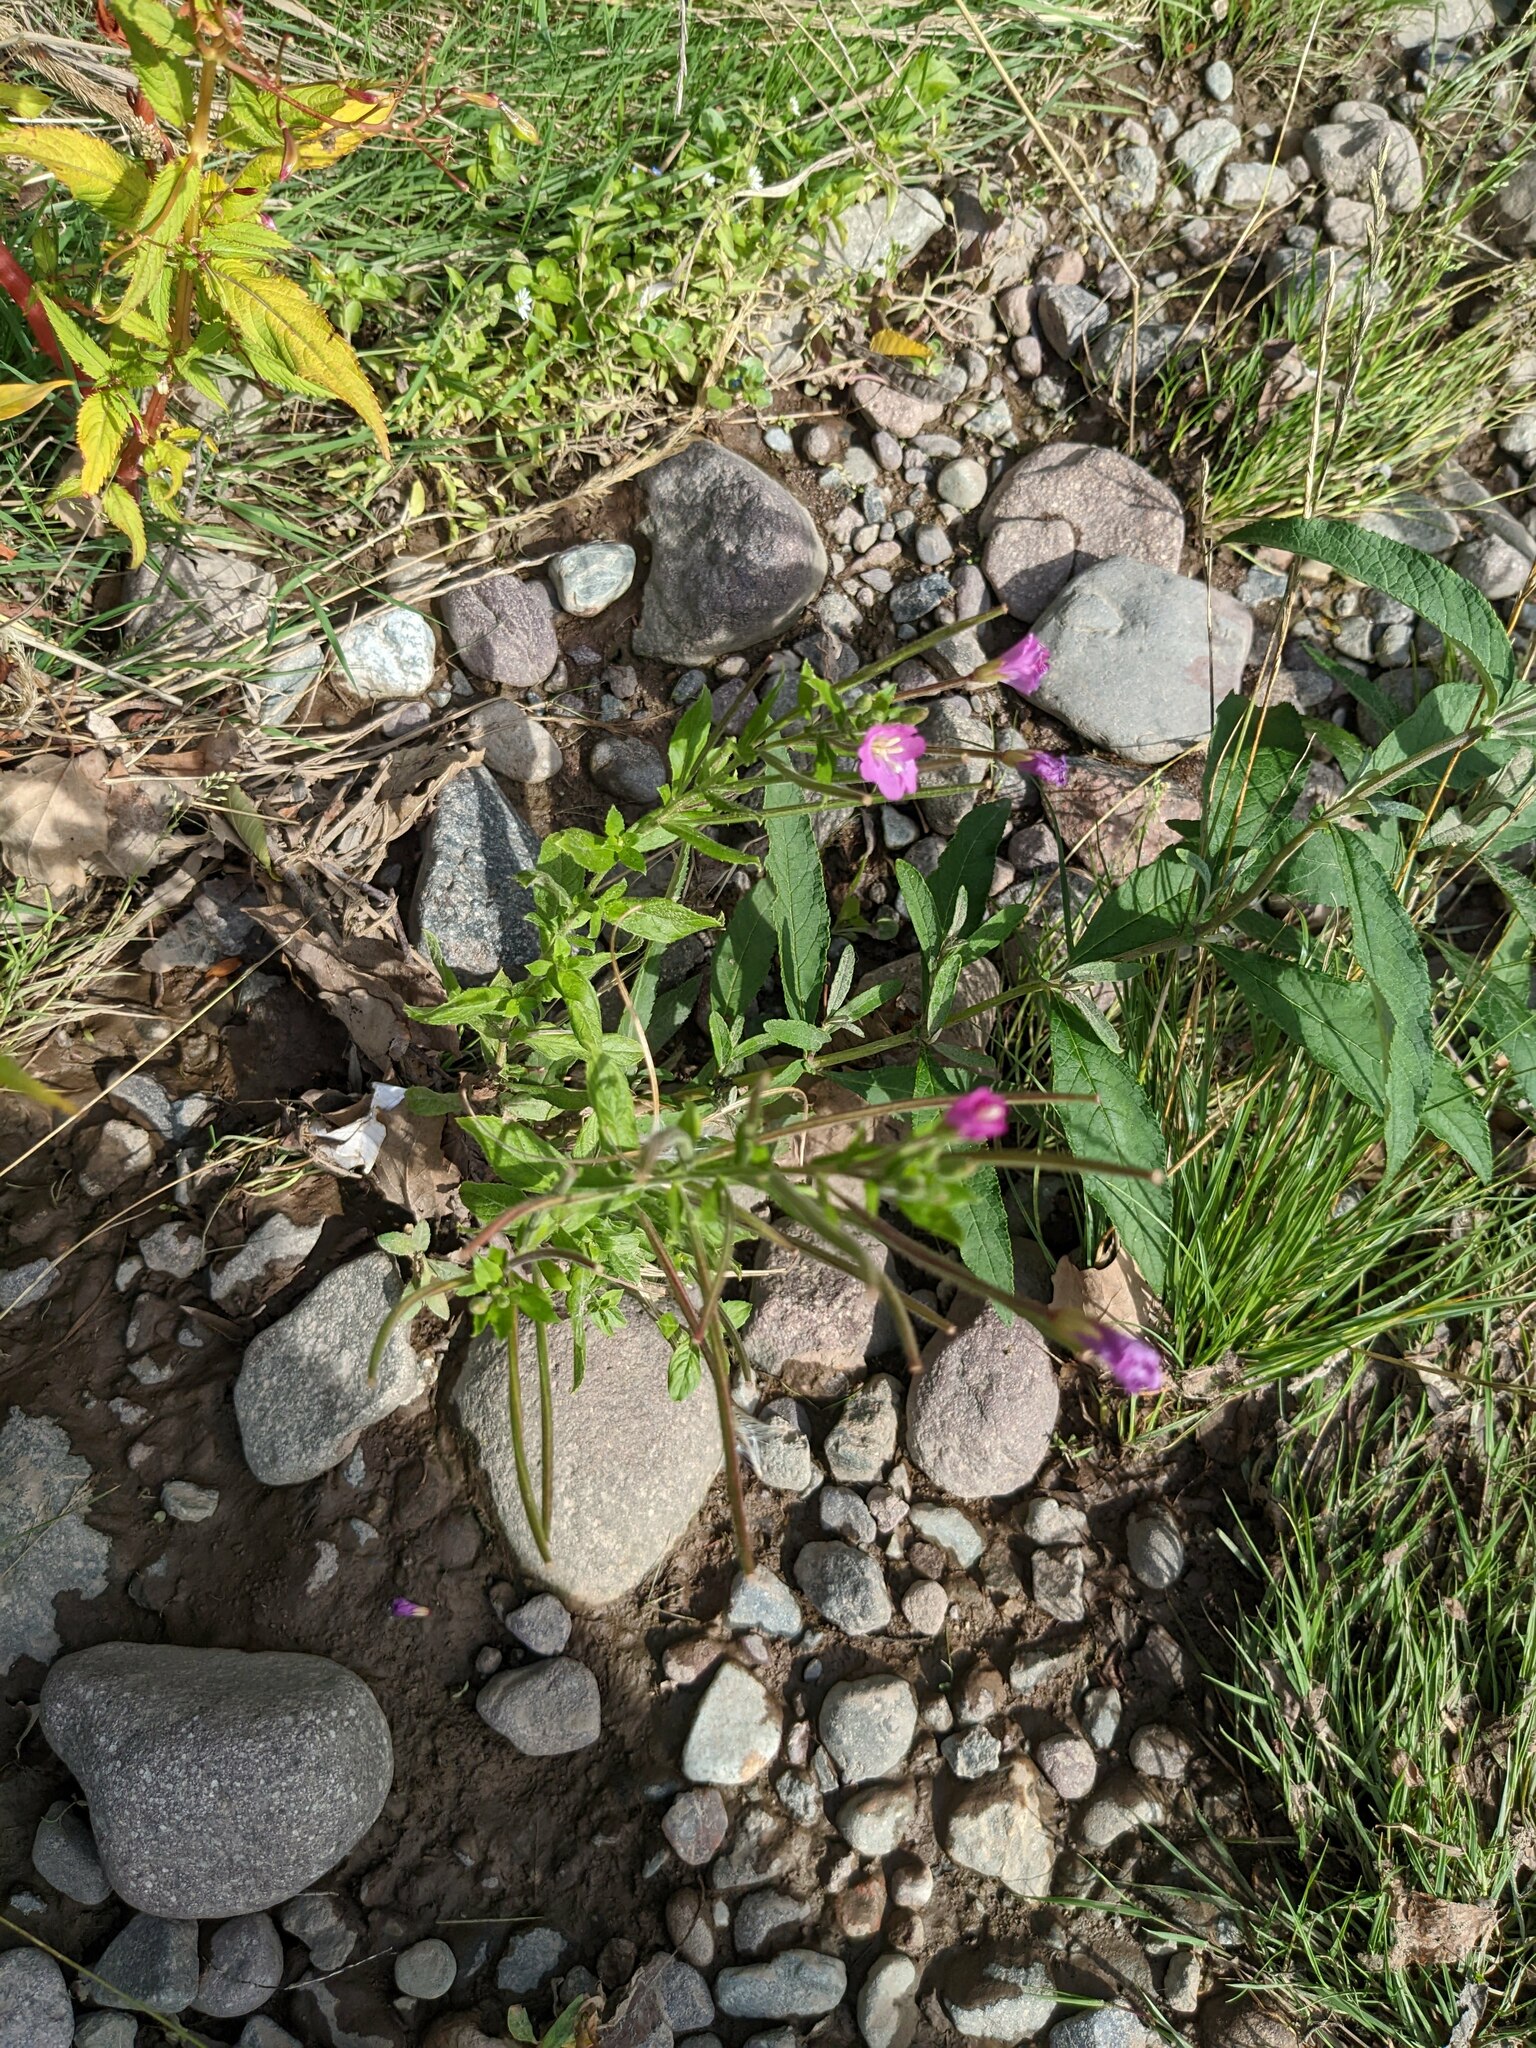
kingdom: Plantae
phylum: Tracheophyta
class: Magnoliopsida
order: Myrtales
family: Onagraceae
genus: Epilobium
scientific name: Epilobium hirsutum
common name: Great willowherb
